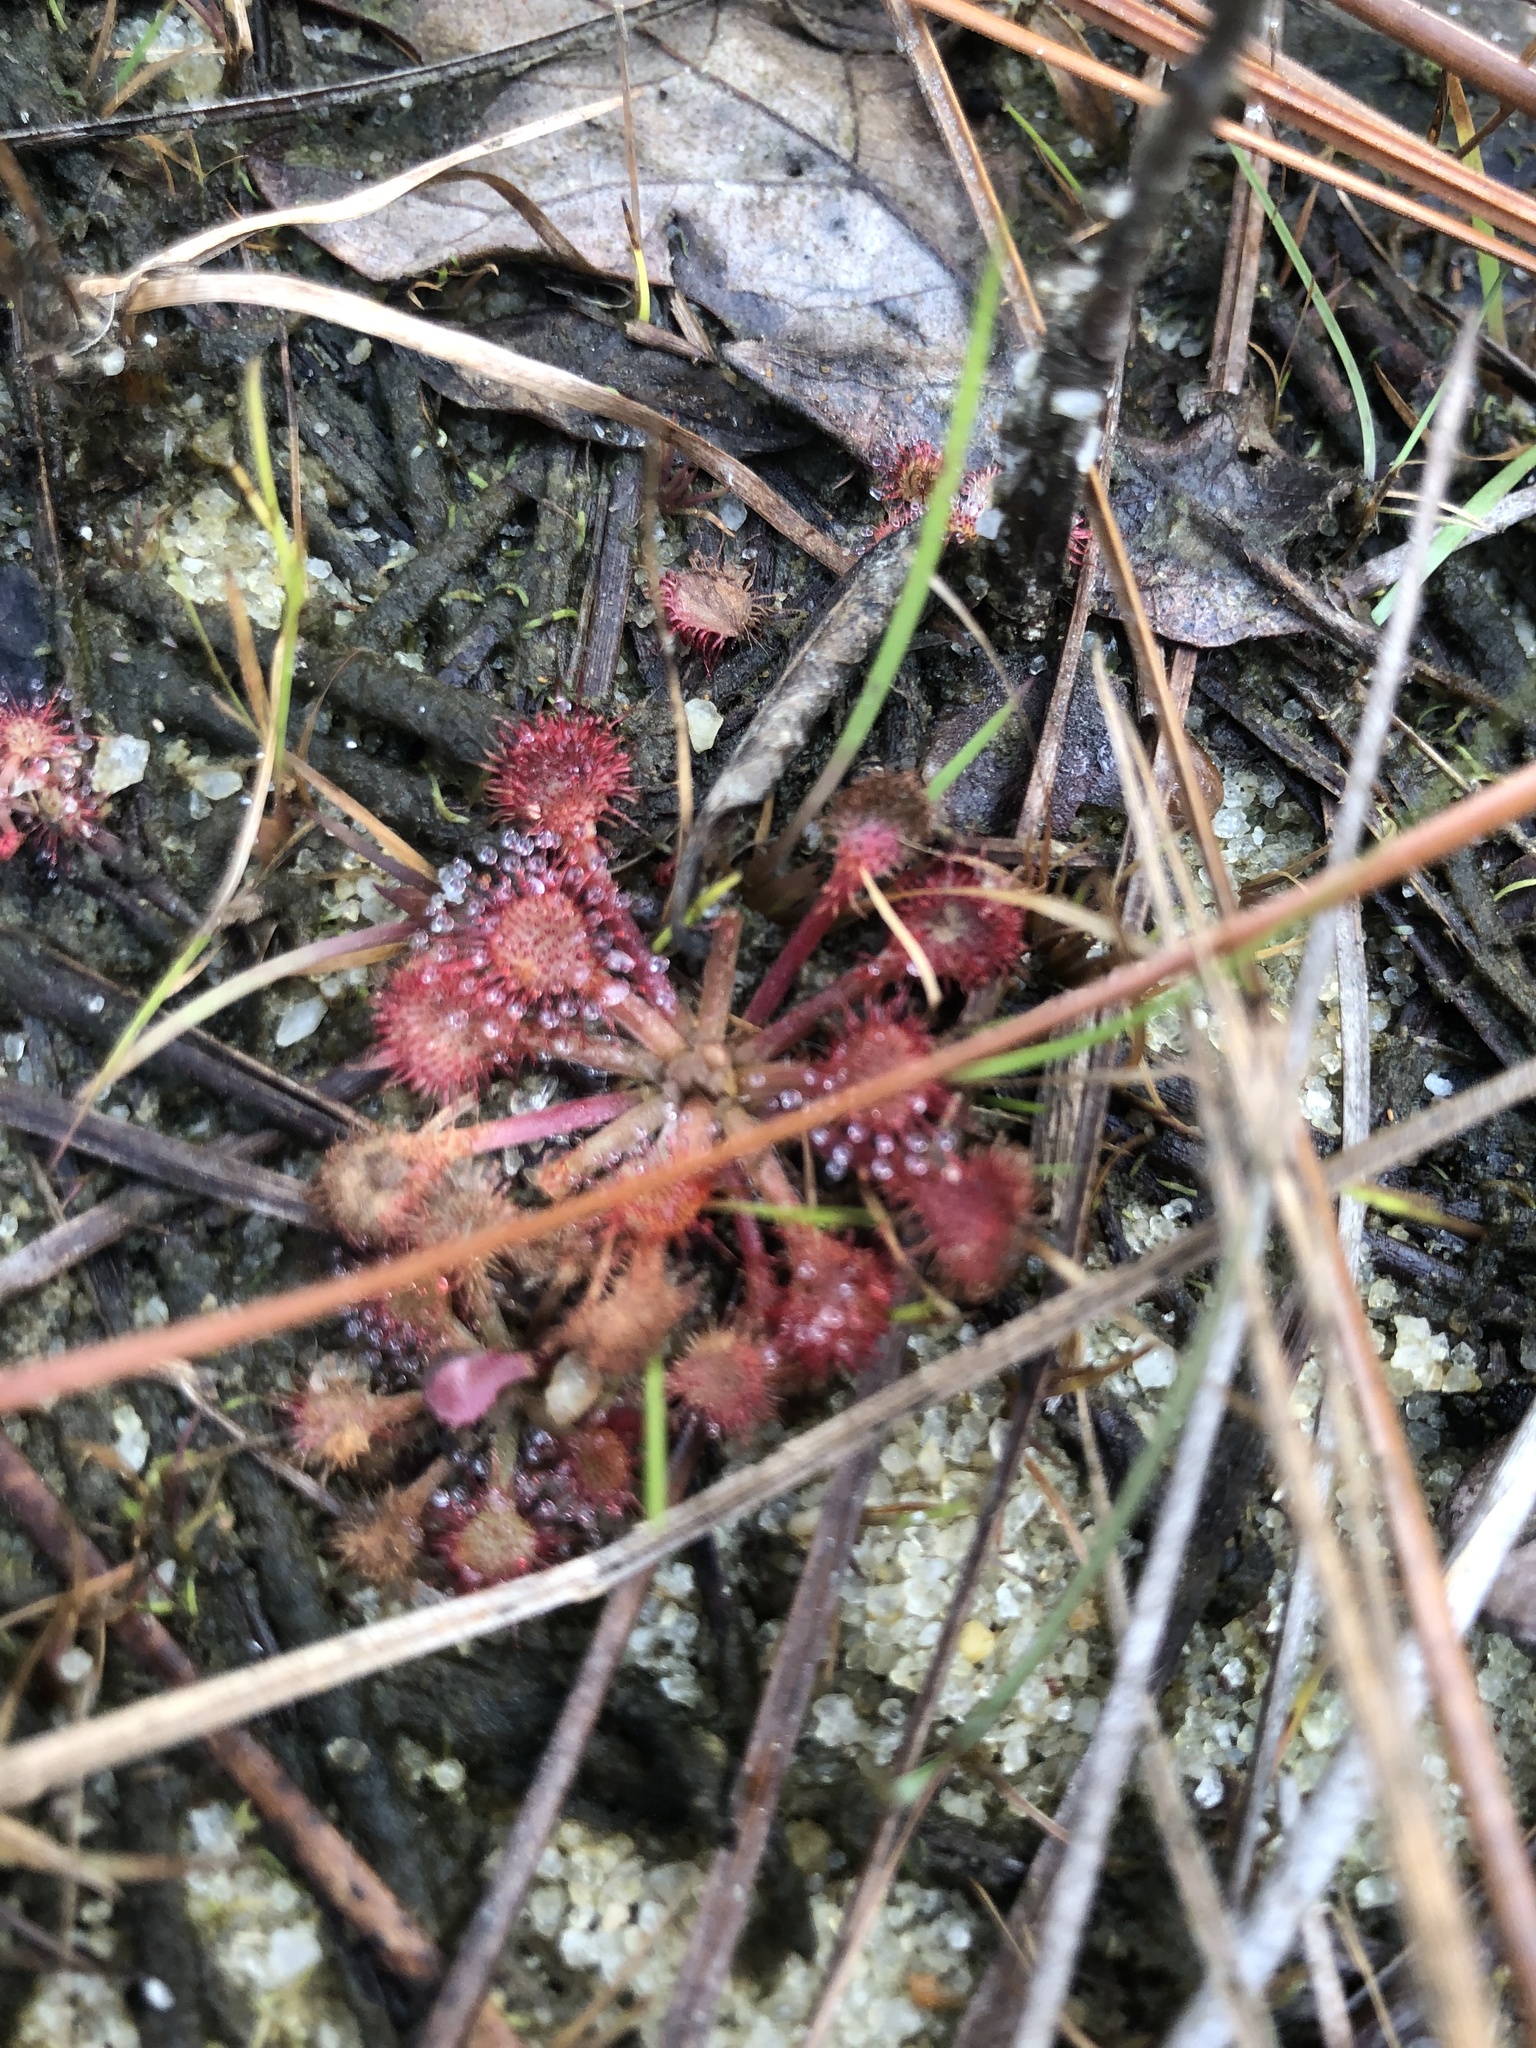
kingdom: Plantae
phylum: Tracheophyta
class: Magnoliopsida
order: Caryophyllales
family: Droseraceae
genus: Drosera
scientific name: Drosera capillaris
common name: Pink sundew
